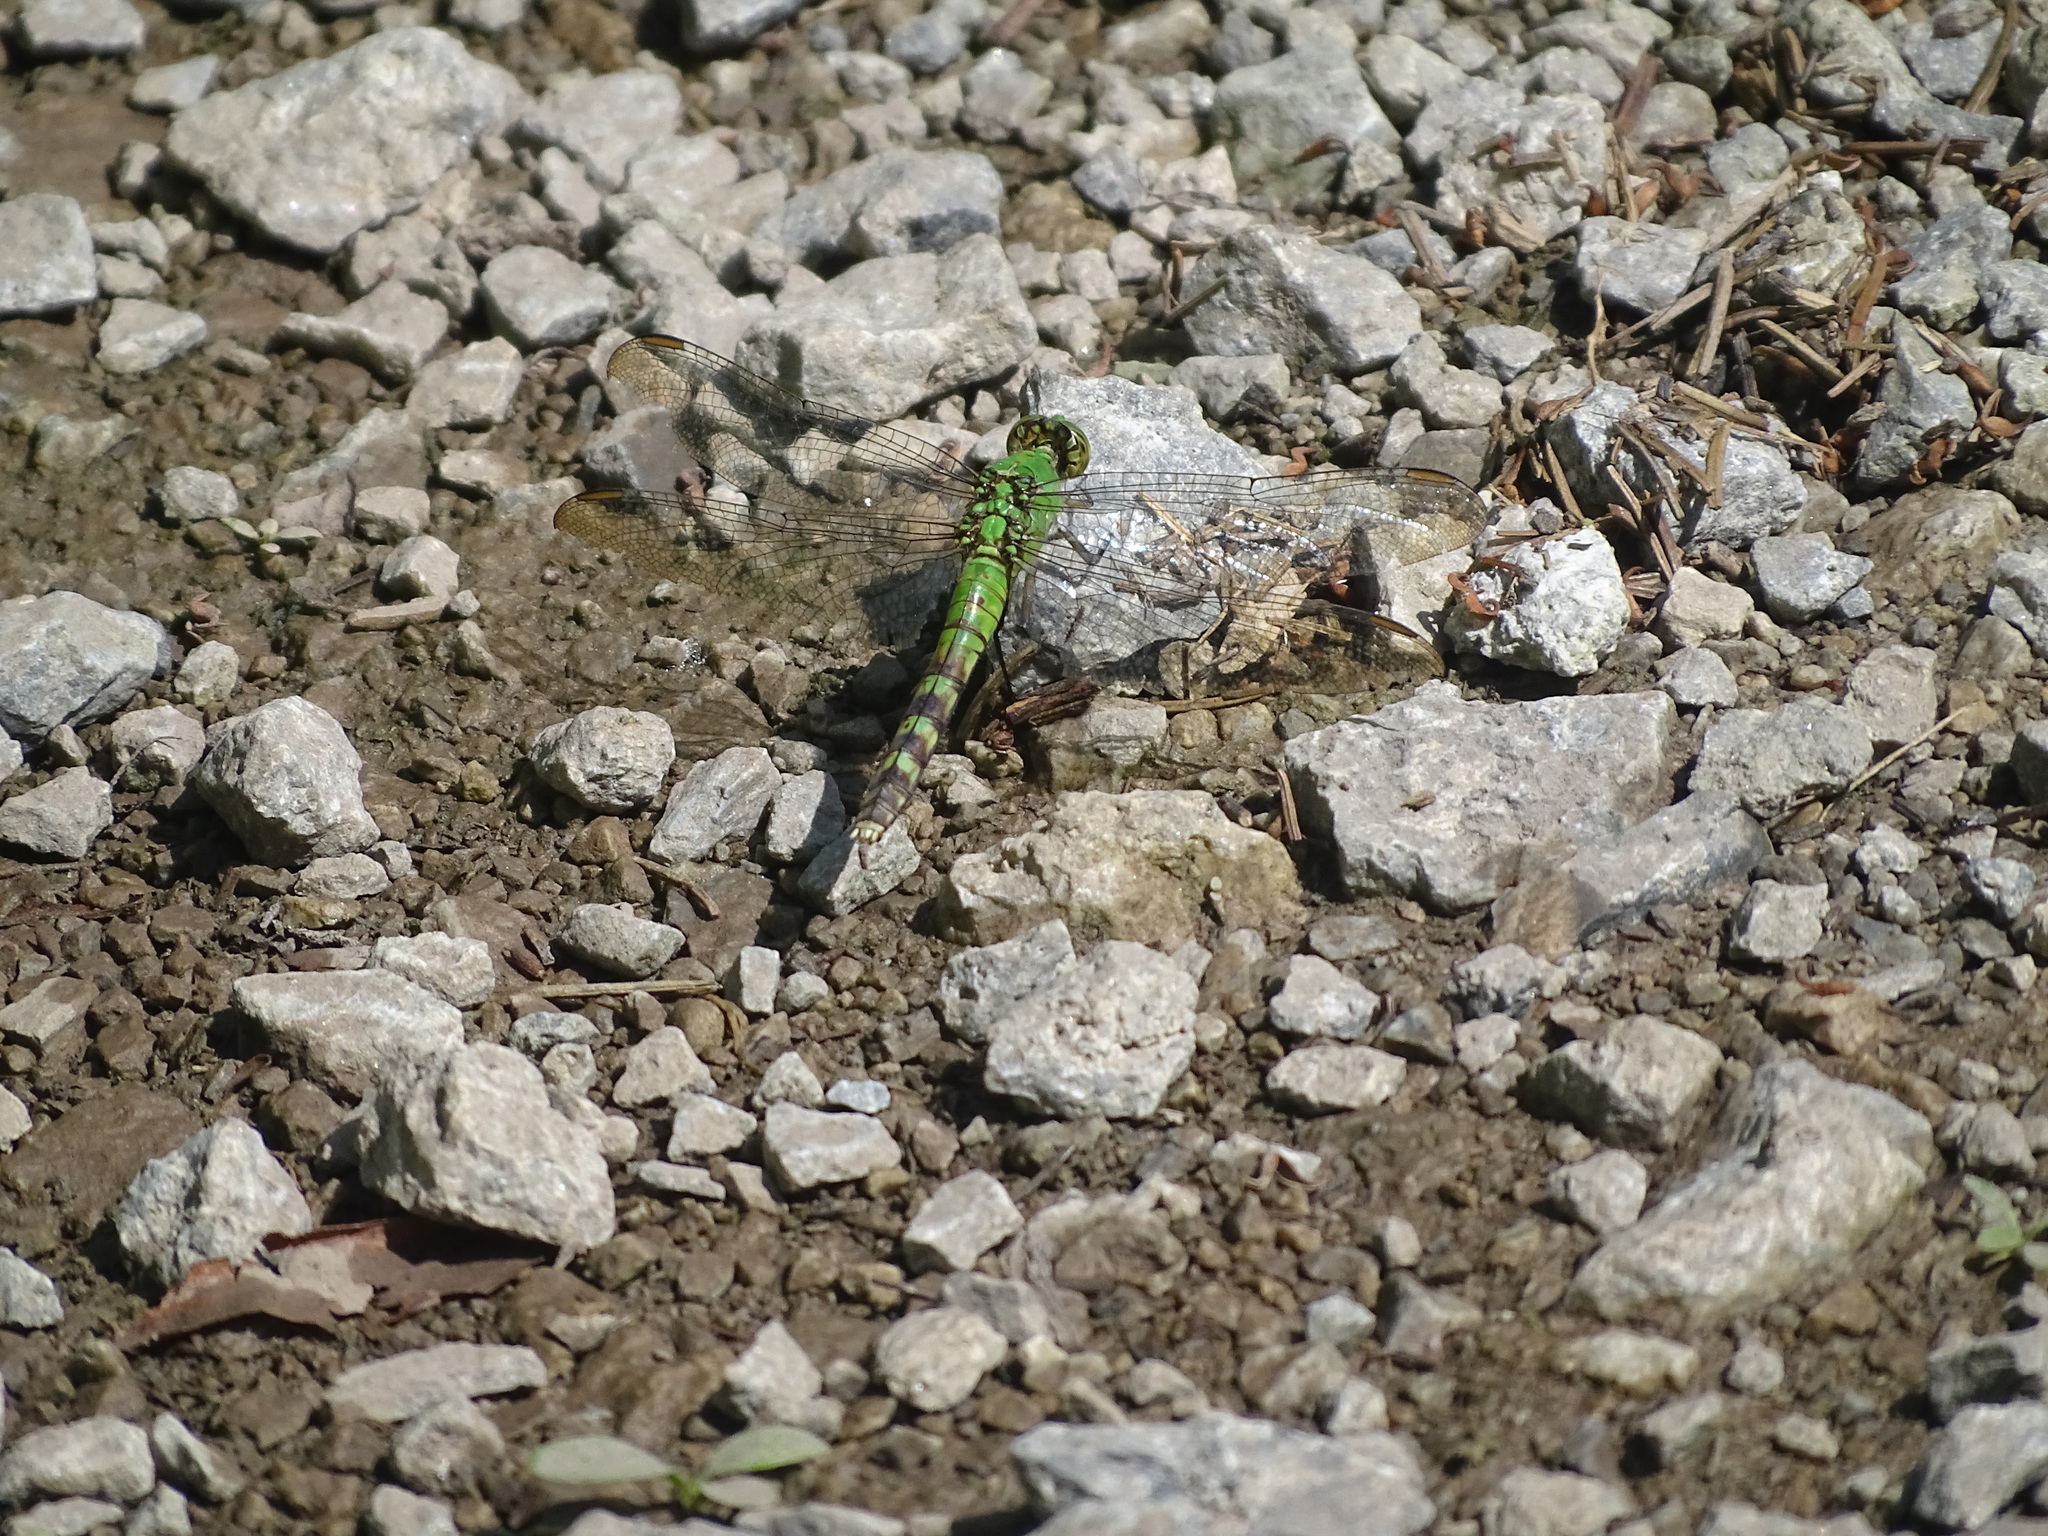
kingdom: Animalia
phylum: Arthropoda
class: Insecta
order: Odonata
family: Libellulidae
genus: Erythemis
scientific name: Erythemis simplicicollis
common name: Eastern pondhawk
